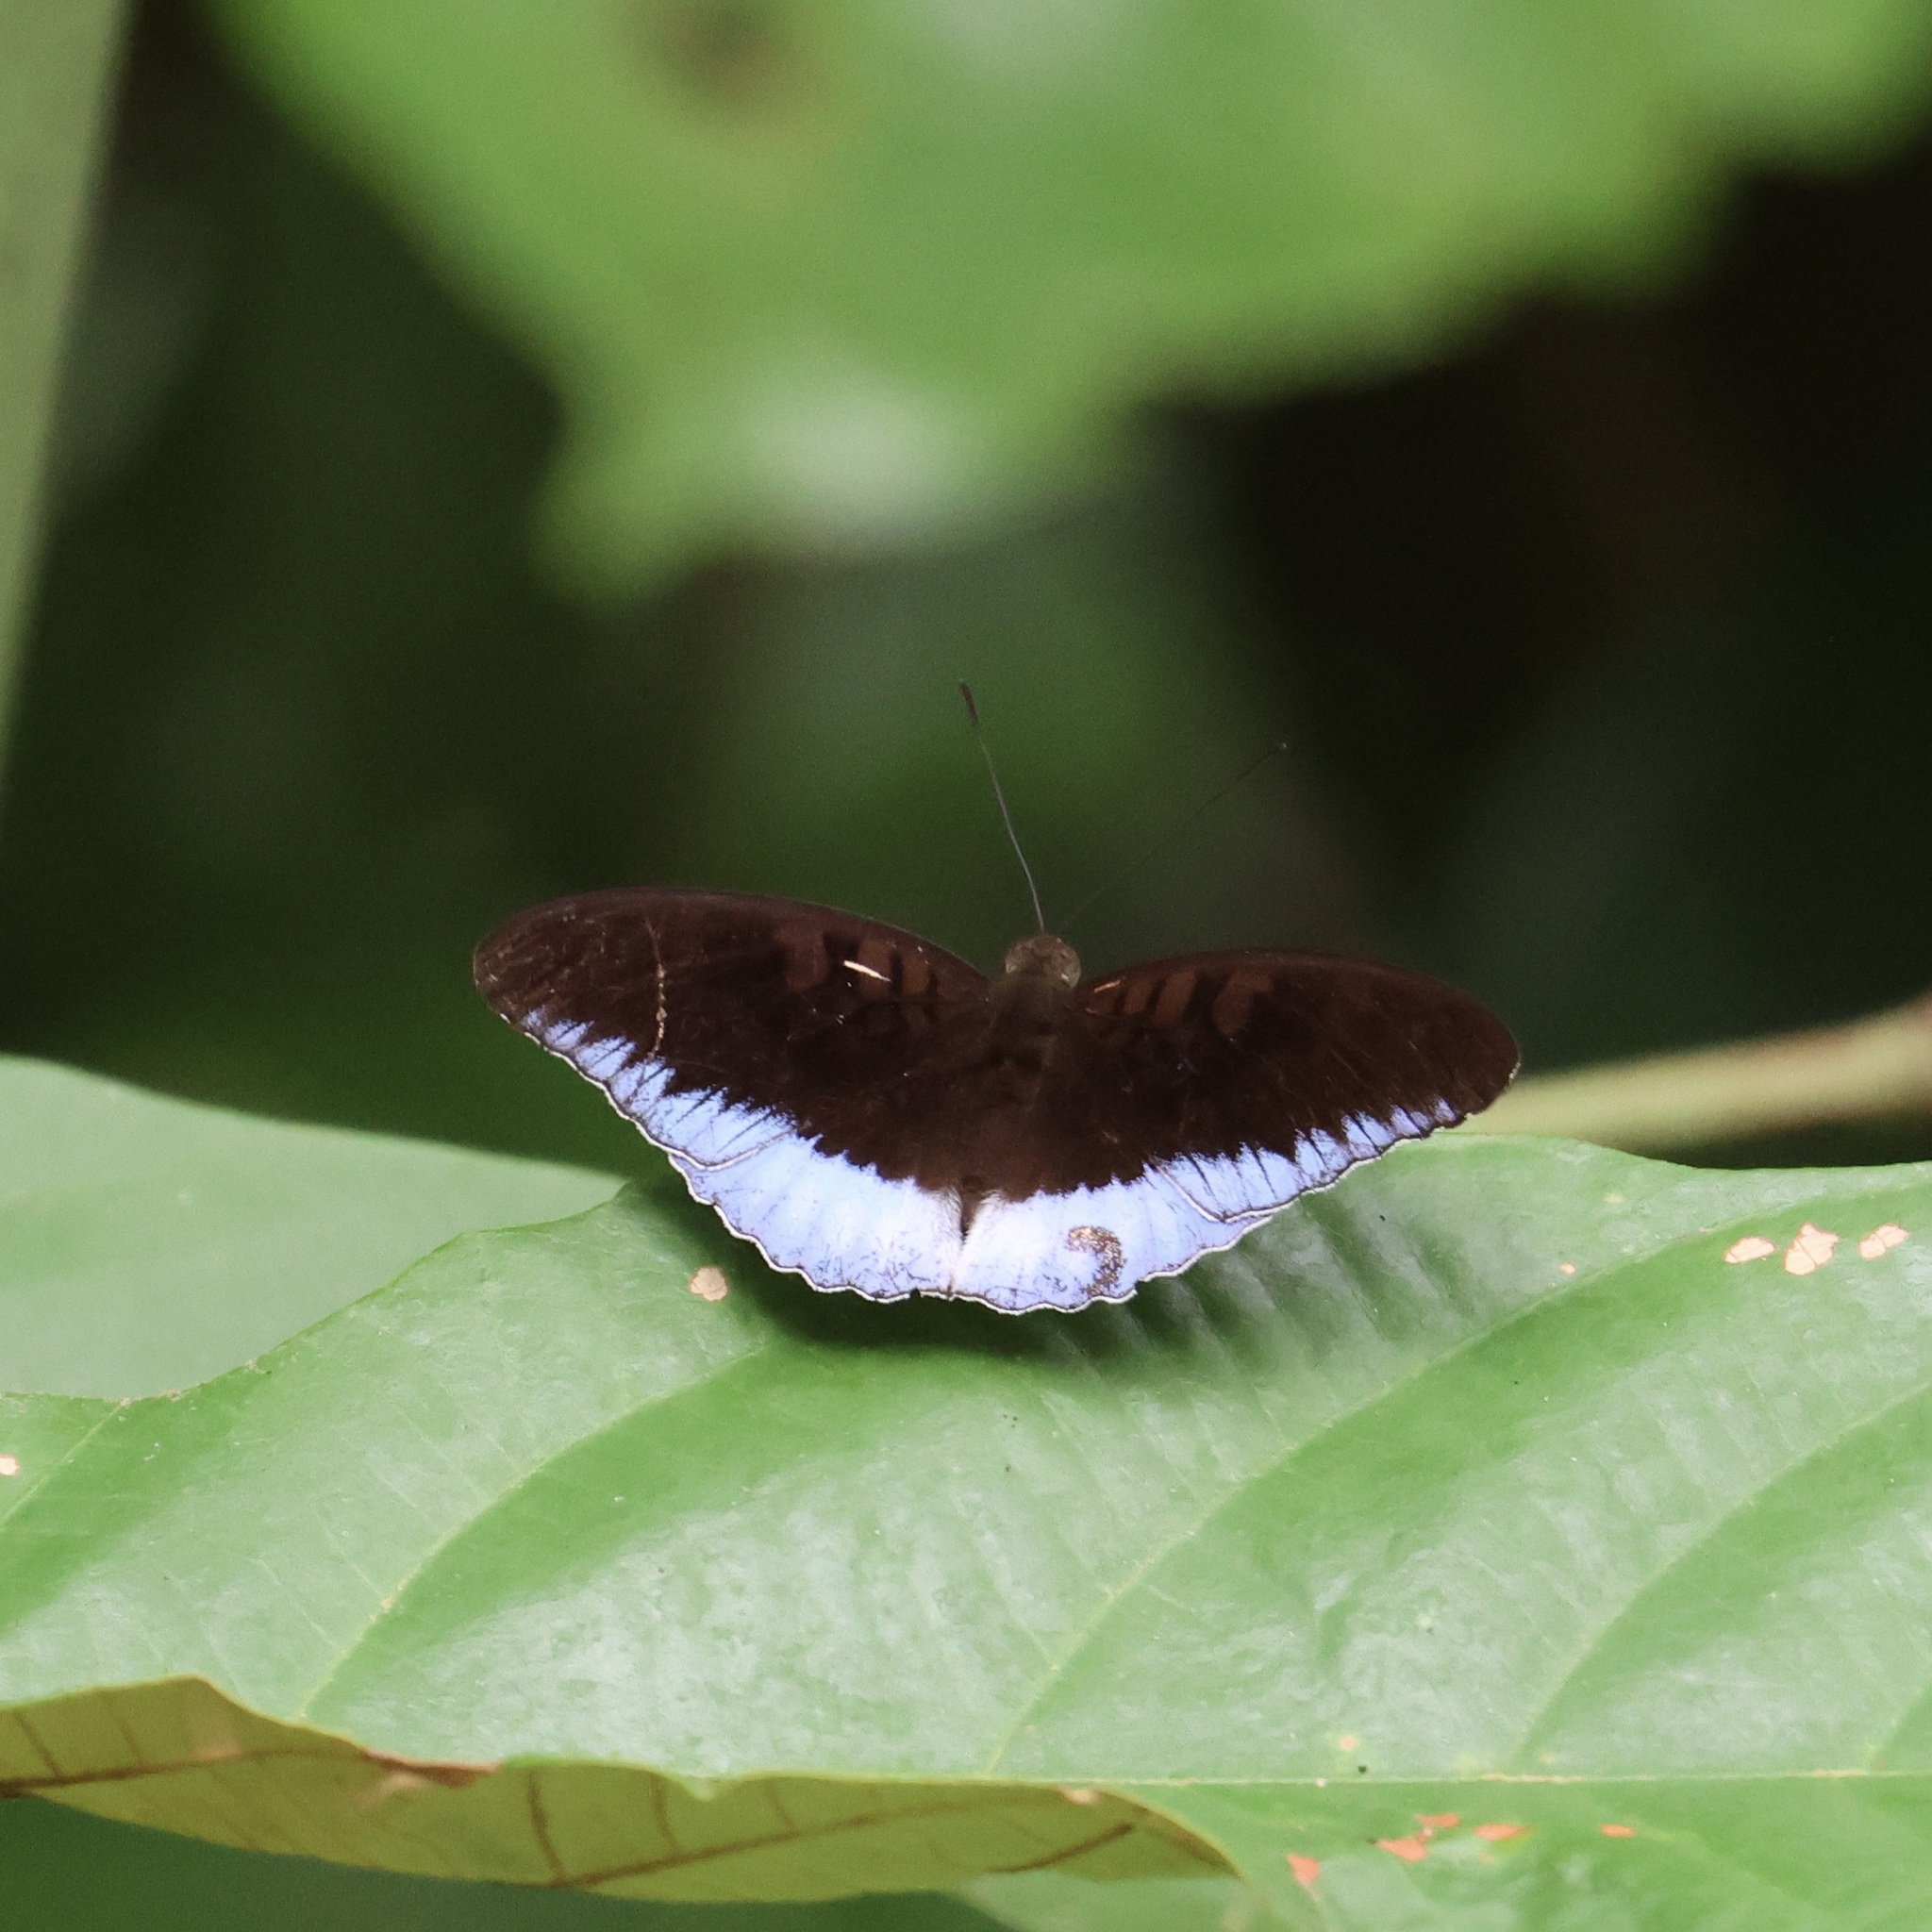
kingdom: Animalia
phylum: Arthropoda
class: Insecta
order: Lepidoptera
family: Nymphalidae
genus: Tanaecia
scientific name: Tanaecia iapis
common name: Horsfield's baron
